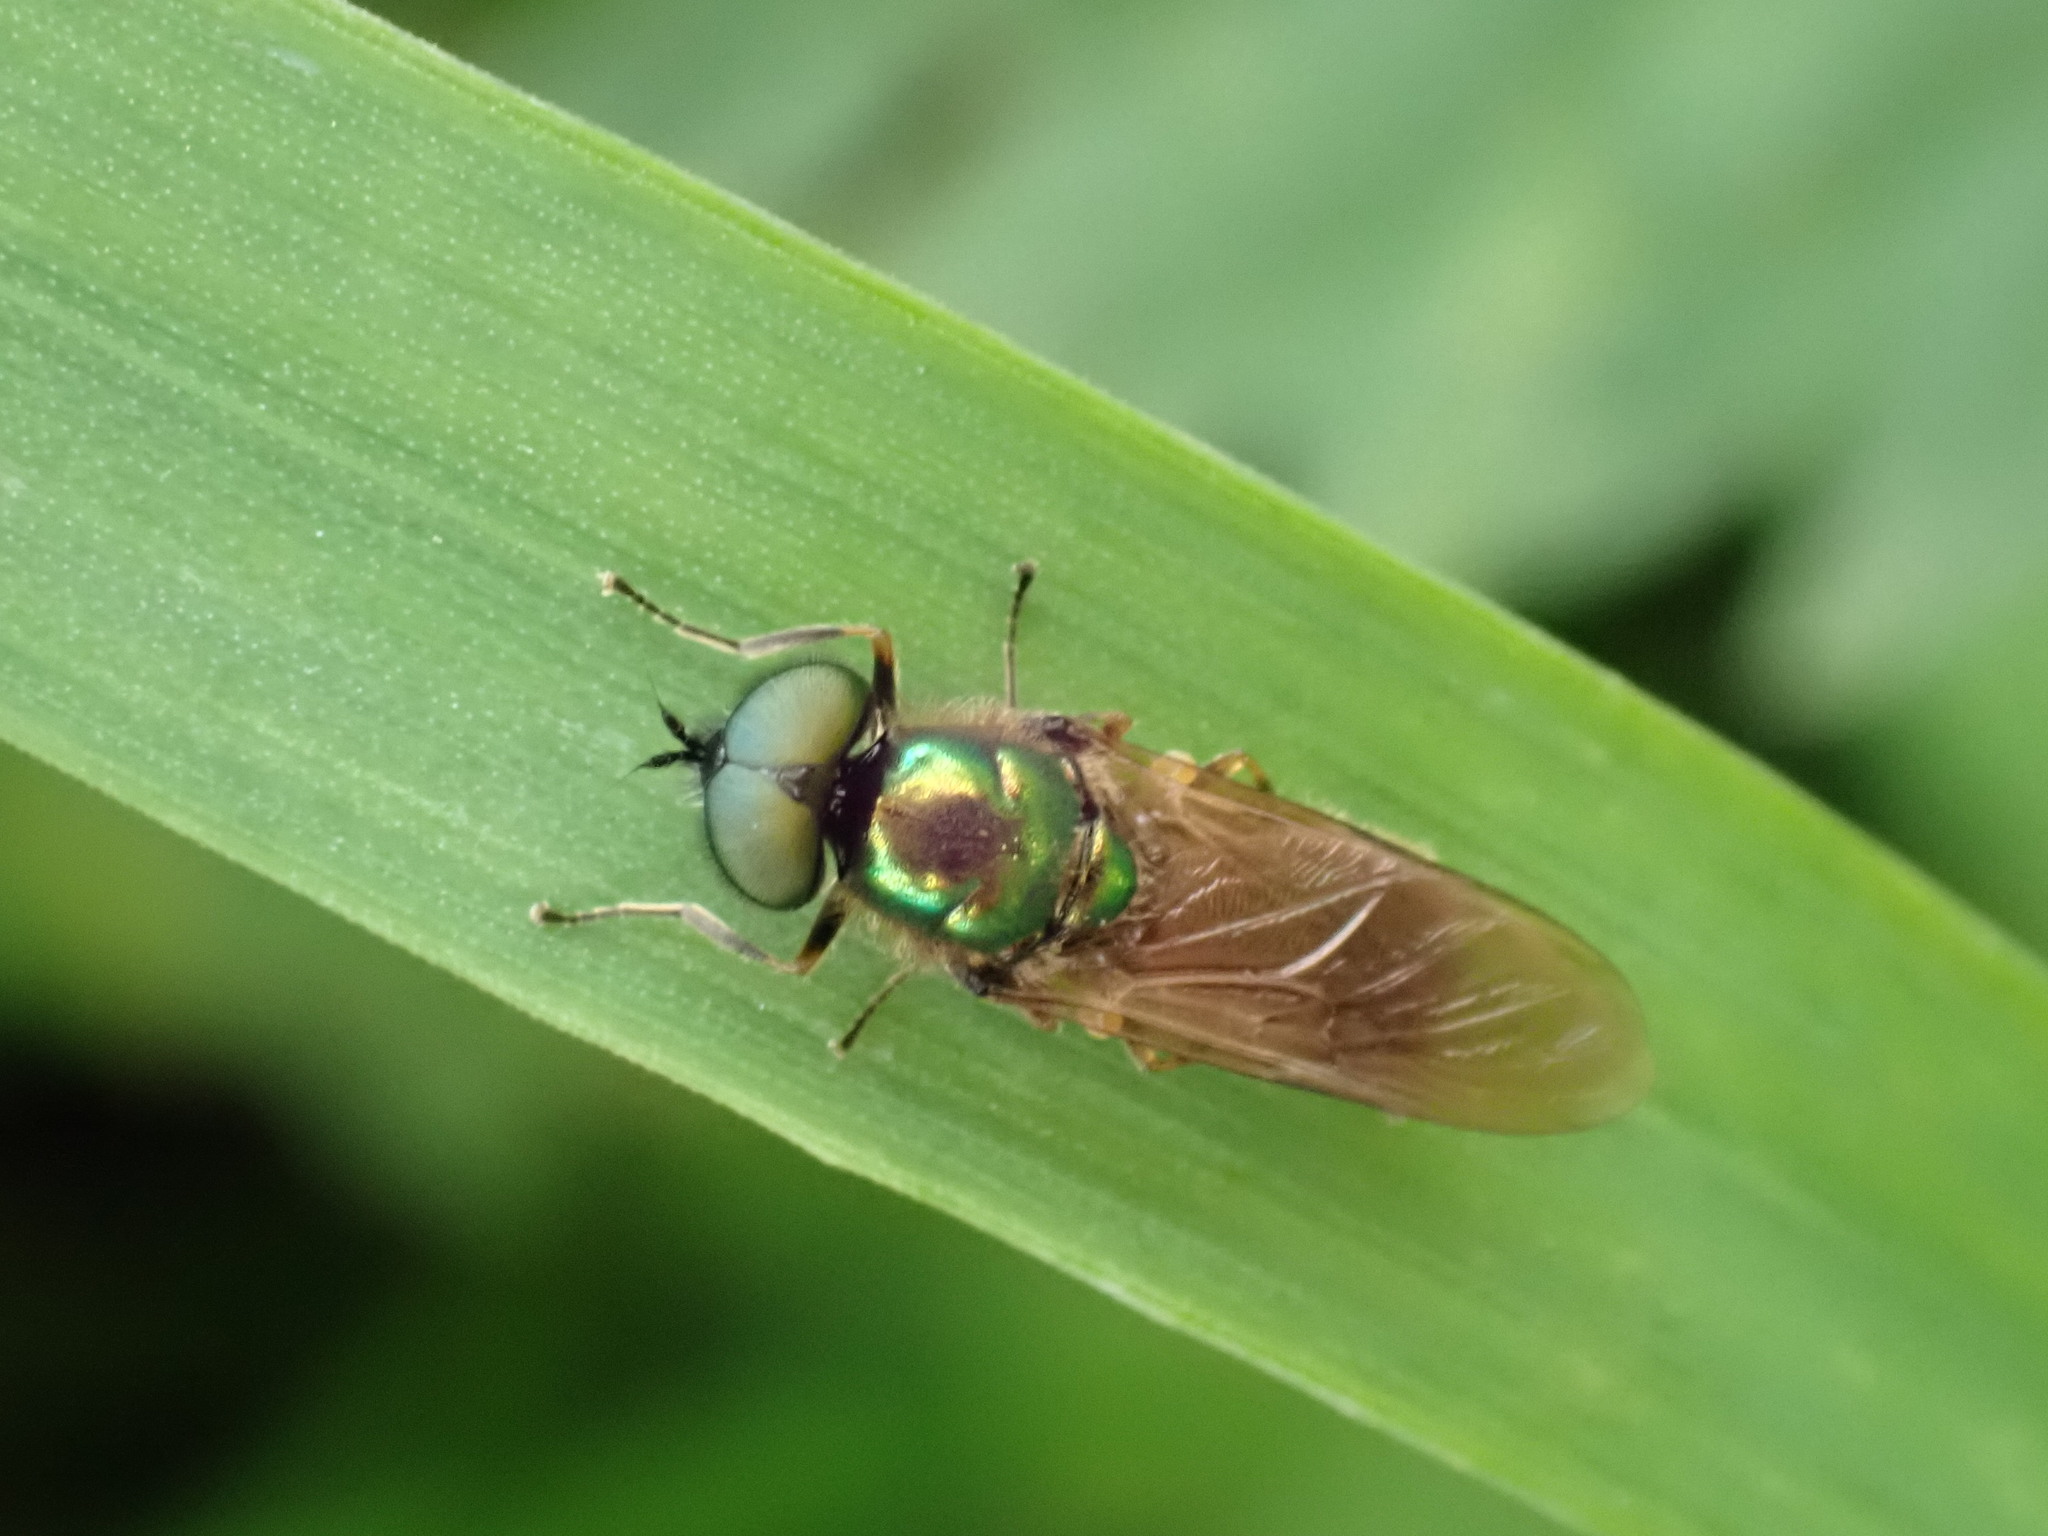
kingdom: Animalia
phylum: Arthropoda
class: Insecta
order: Diptera
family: Stratiomyidae
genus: Chloromyia
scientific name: Chloromyia formosa
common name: Soldier fly
